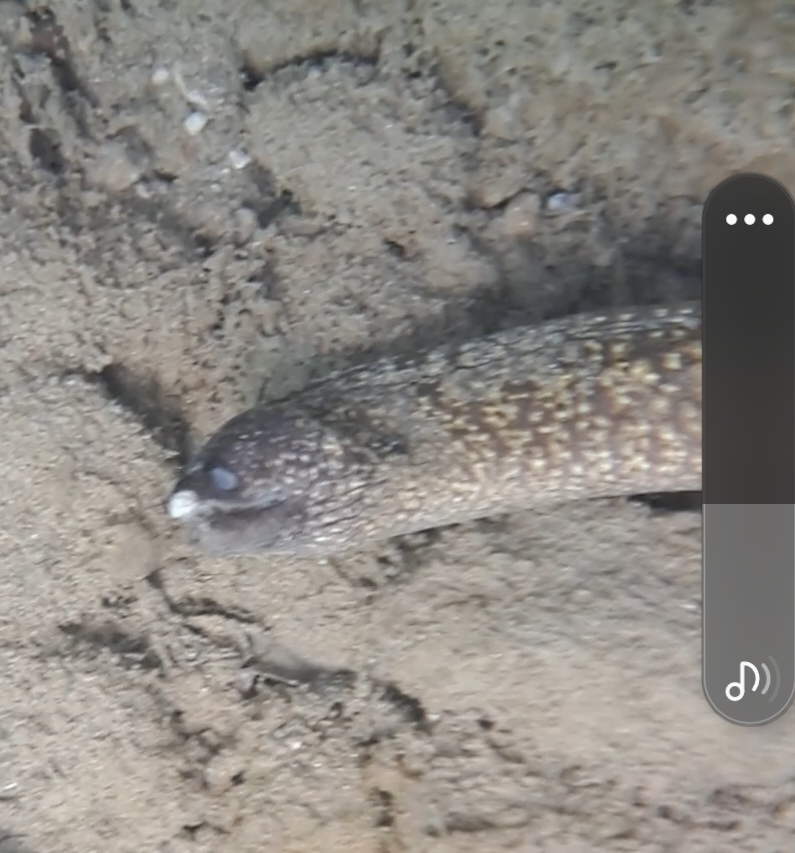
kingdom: Animalia
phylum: Chordata
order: Anguilliformes
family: Muraenidae
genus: Muraena
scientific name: Muraena helena
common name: Mediterranean moray
